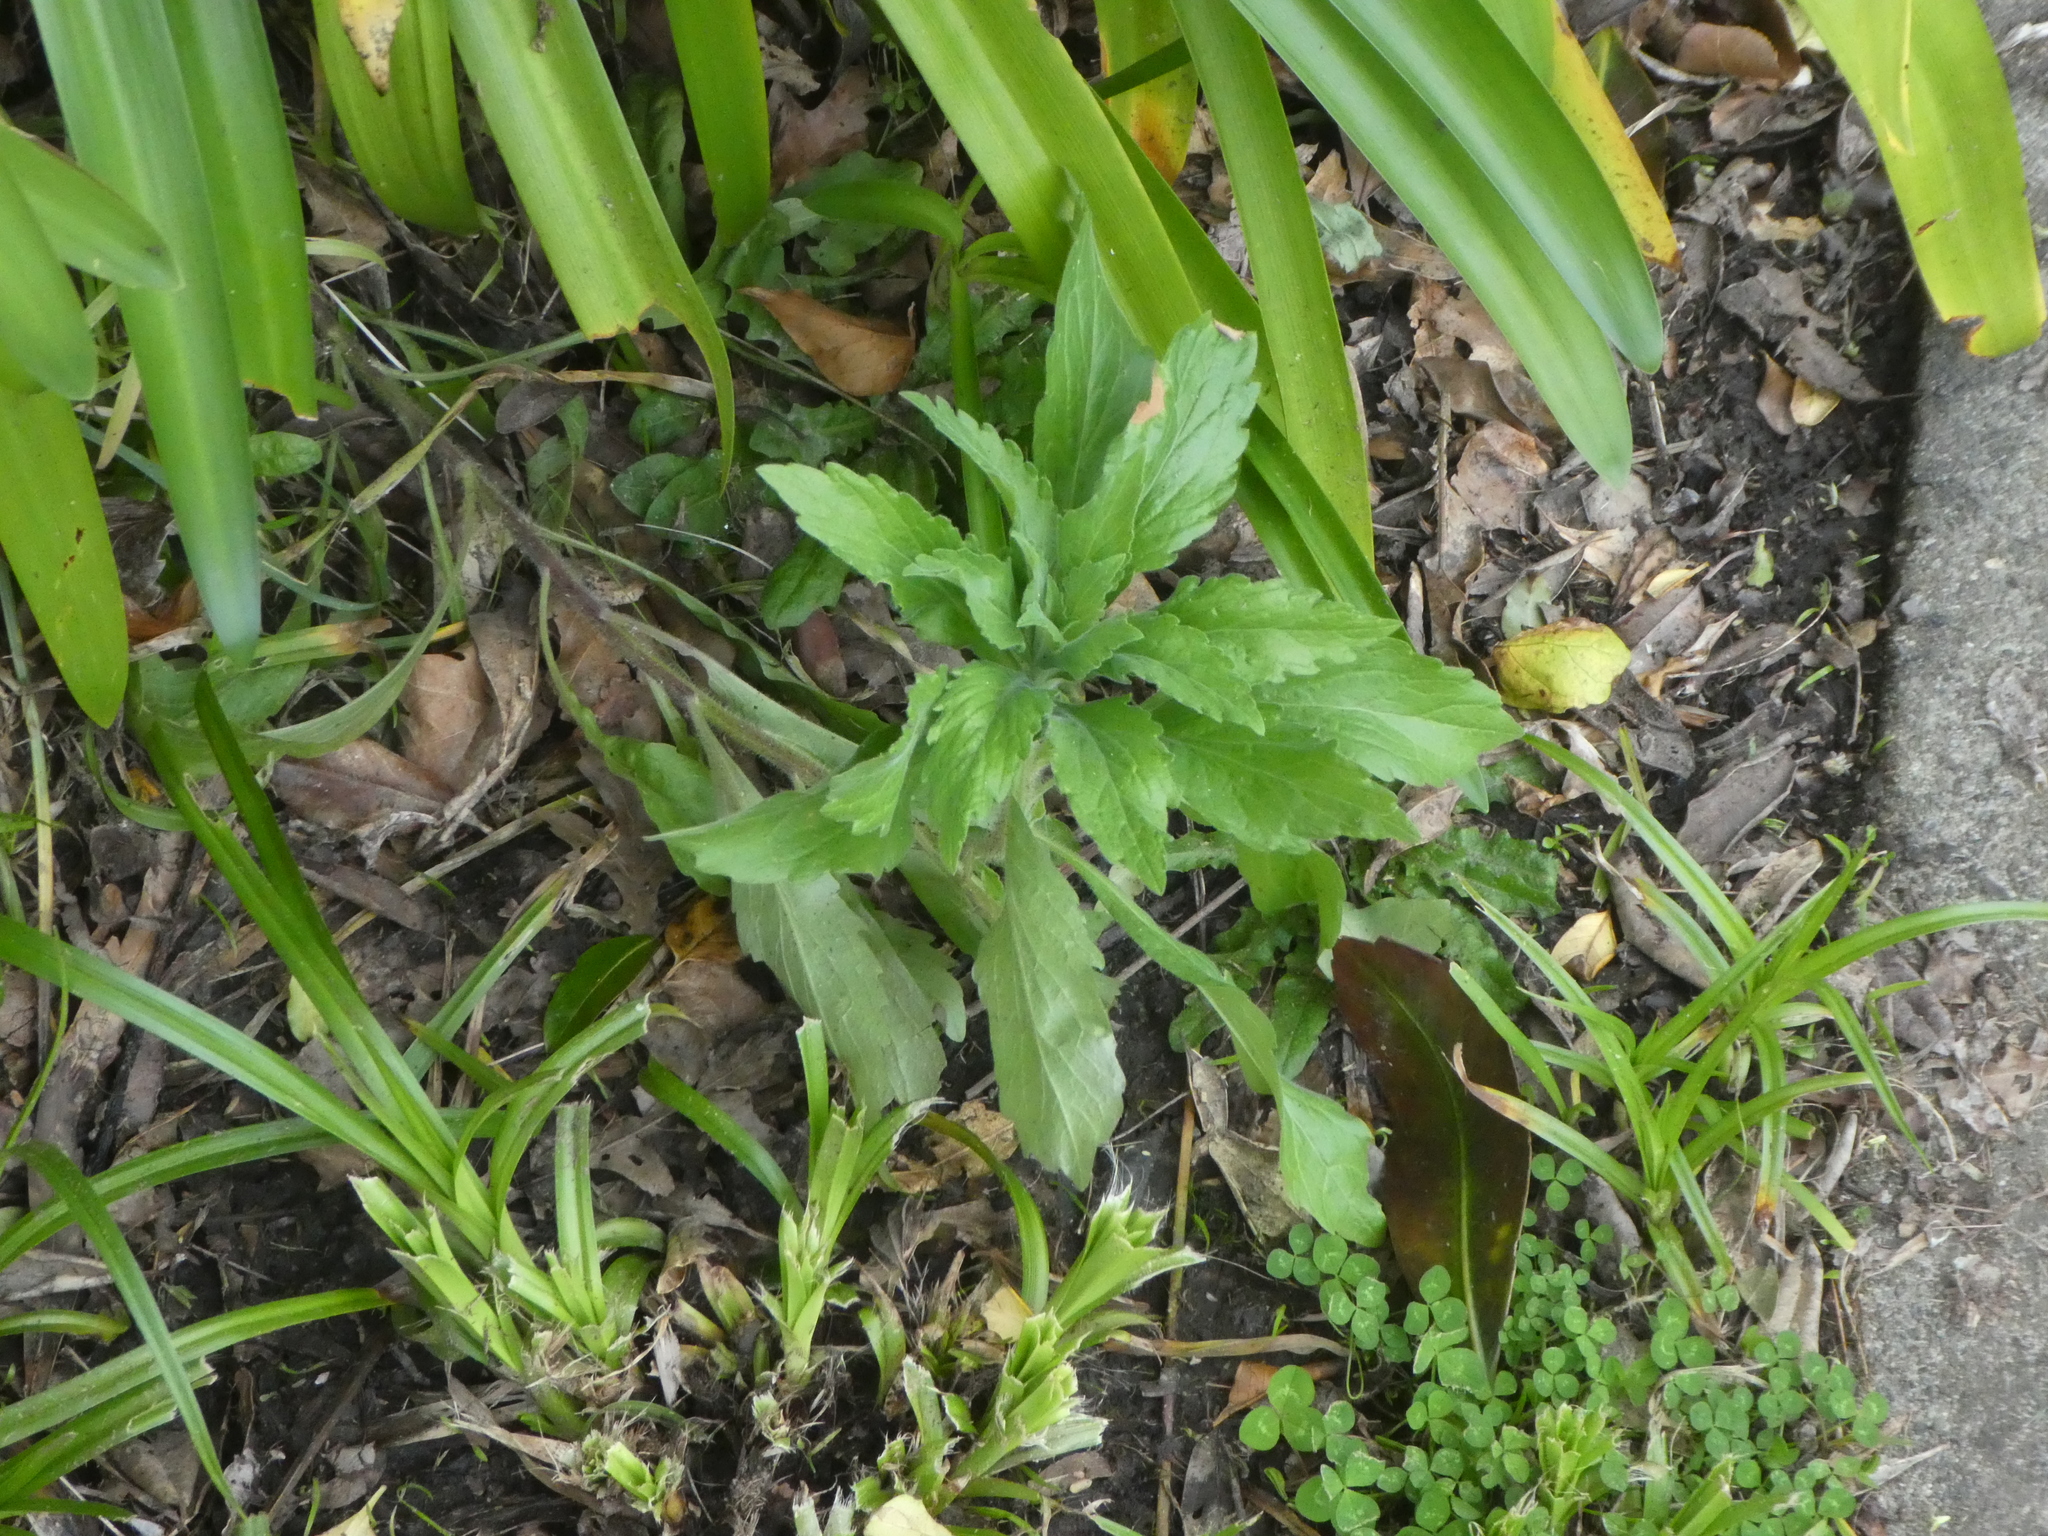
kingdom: Plantae
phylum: Tracheophyta
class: Magnoliopsida
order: Asterales
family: Asteraceae
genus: Erigeron
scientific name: Erigeron sumatrensis
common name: Daisy
